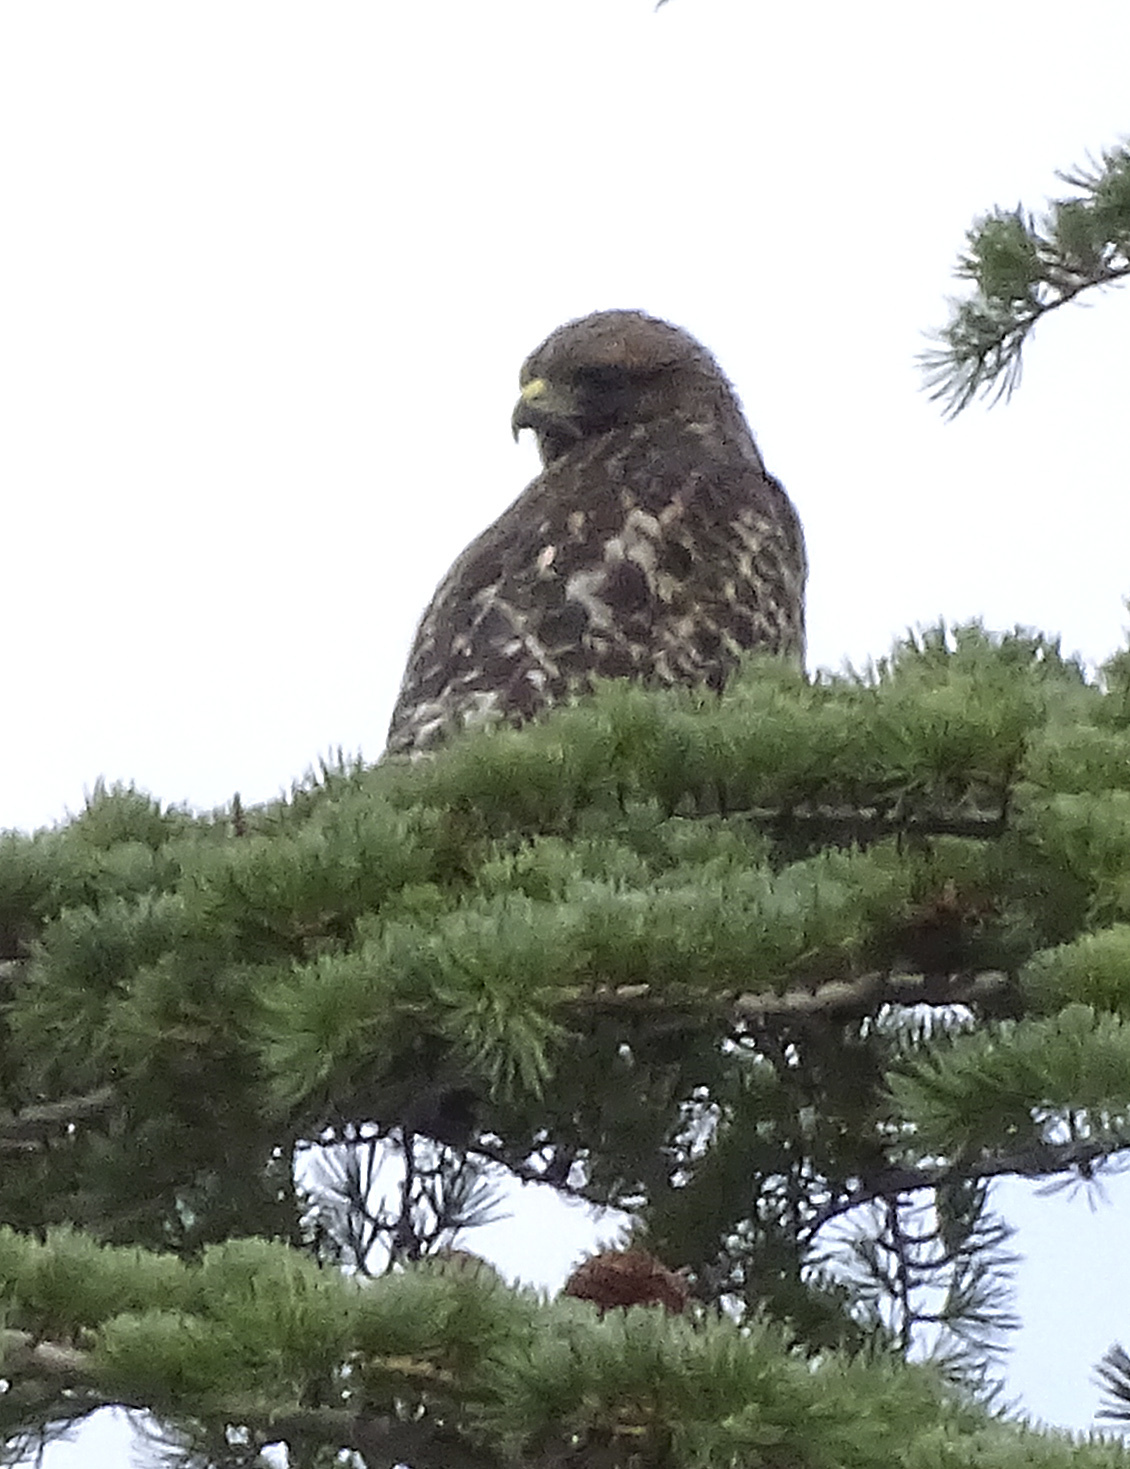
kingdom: Animalia
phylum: Chordata
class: Aves
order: Accipitriformes
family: Accipitridae
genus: Buteo
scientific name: Buteo lineatus
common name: Red-shouldered hawk
